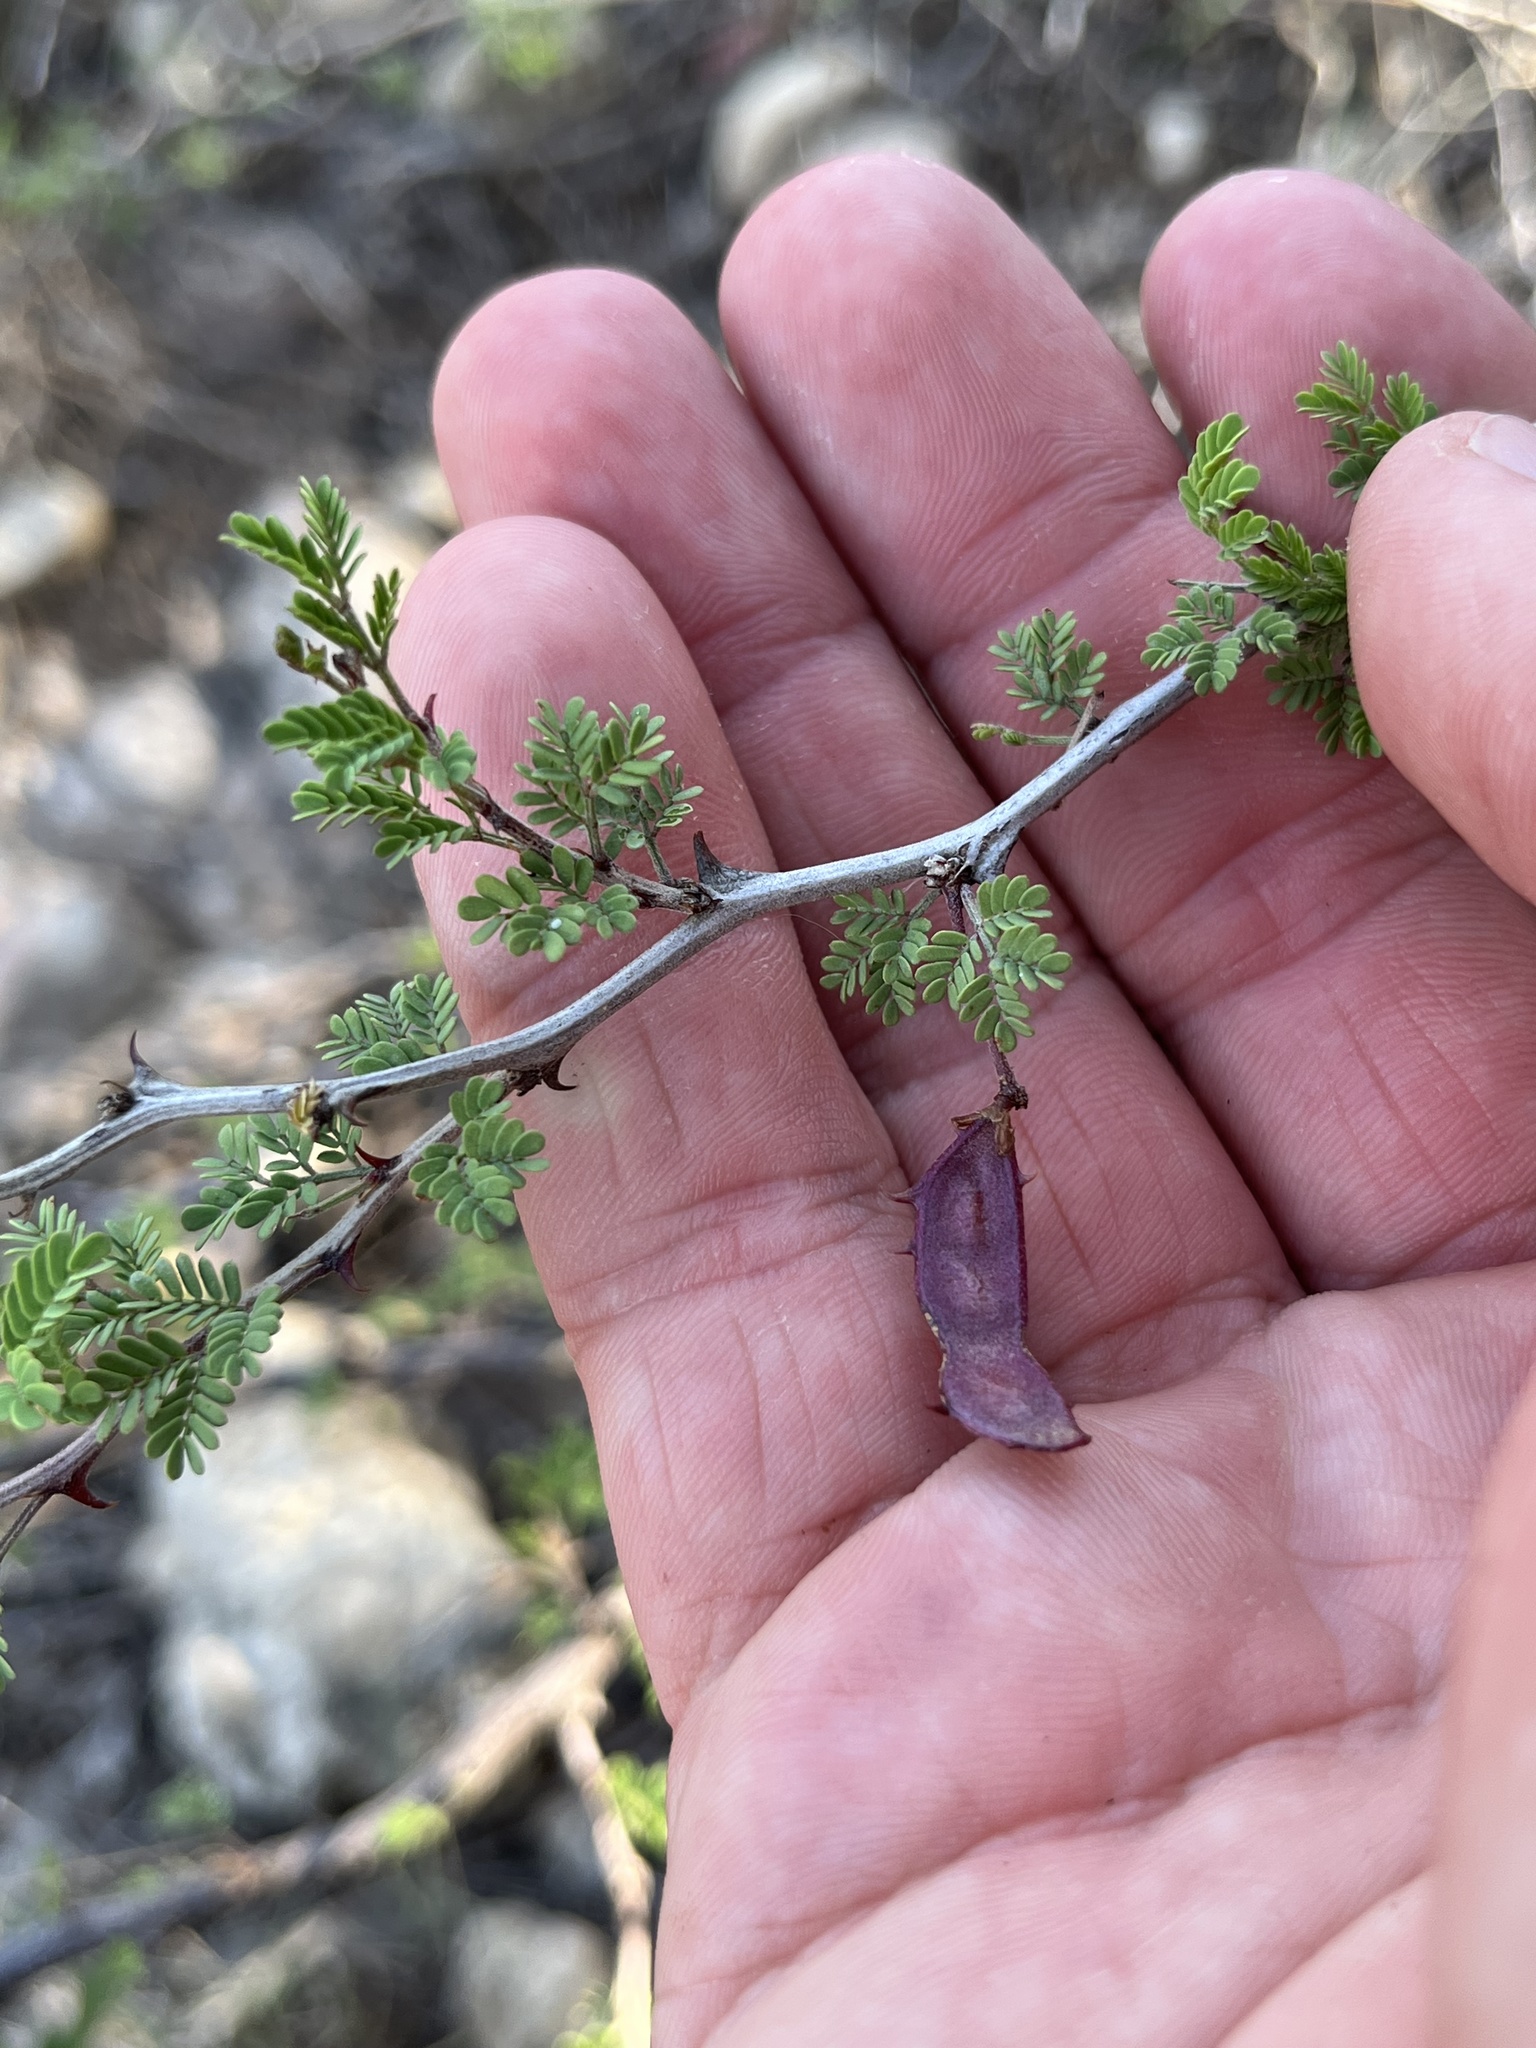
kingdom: Plantae
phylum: Tracheophyta
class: Magnoliopsida
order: Fabales
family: Fabaceae
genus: Mimosa
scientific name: Mimosa texana
